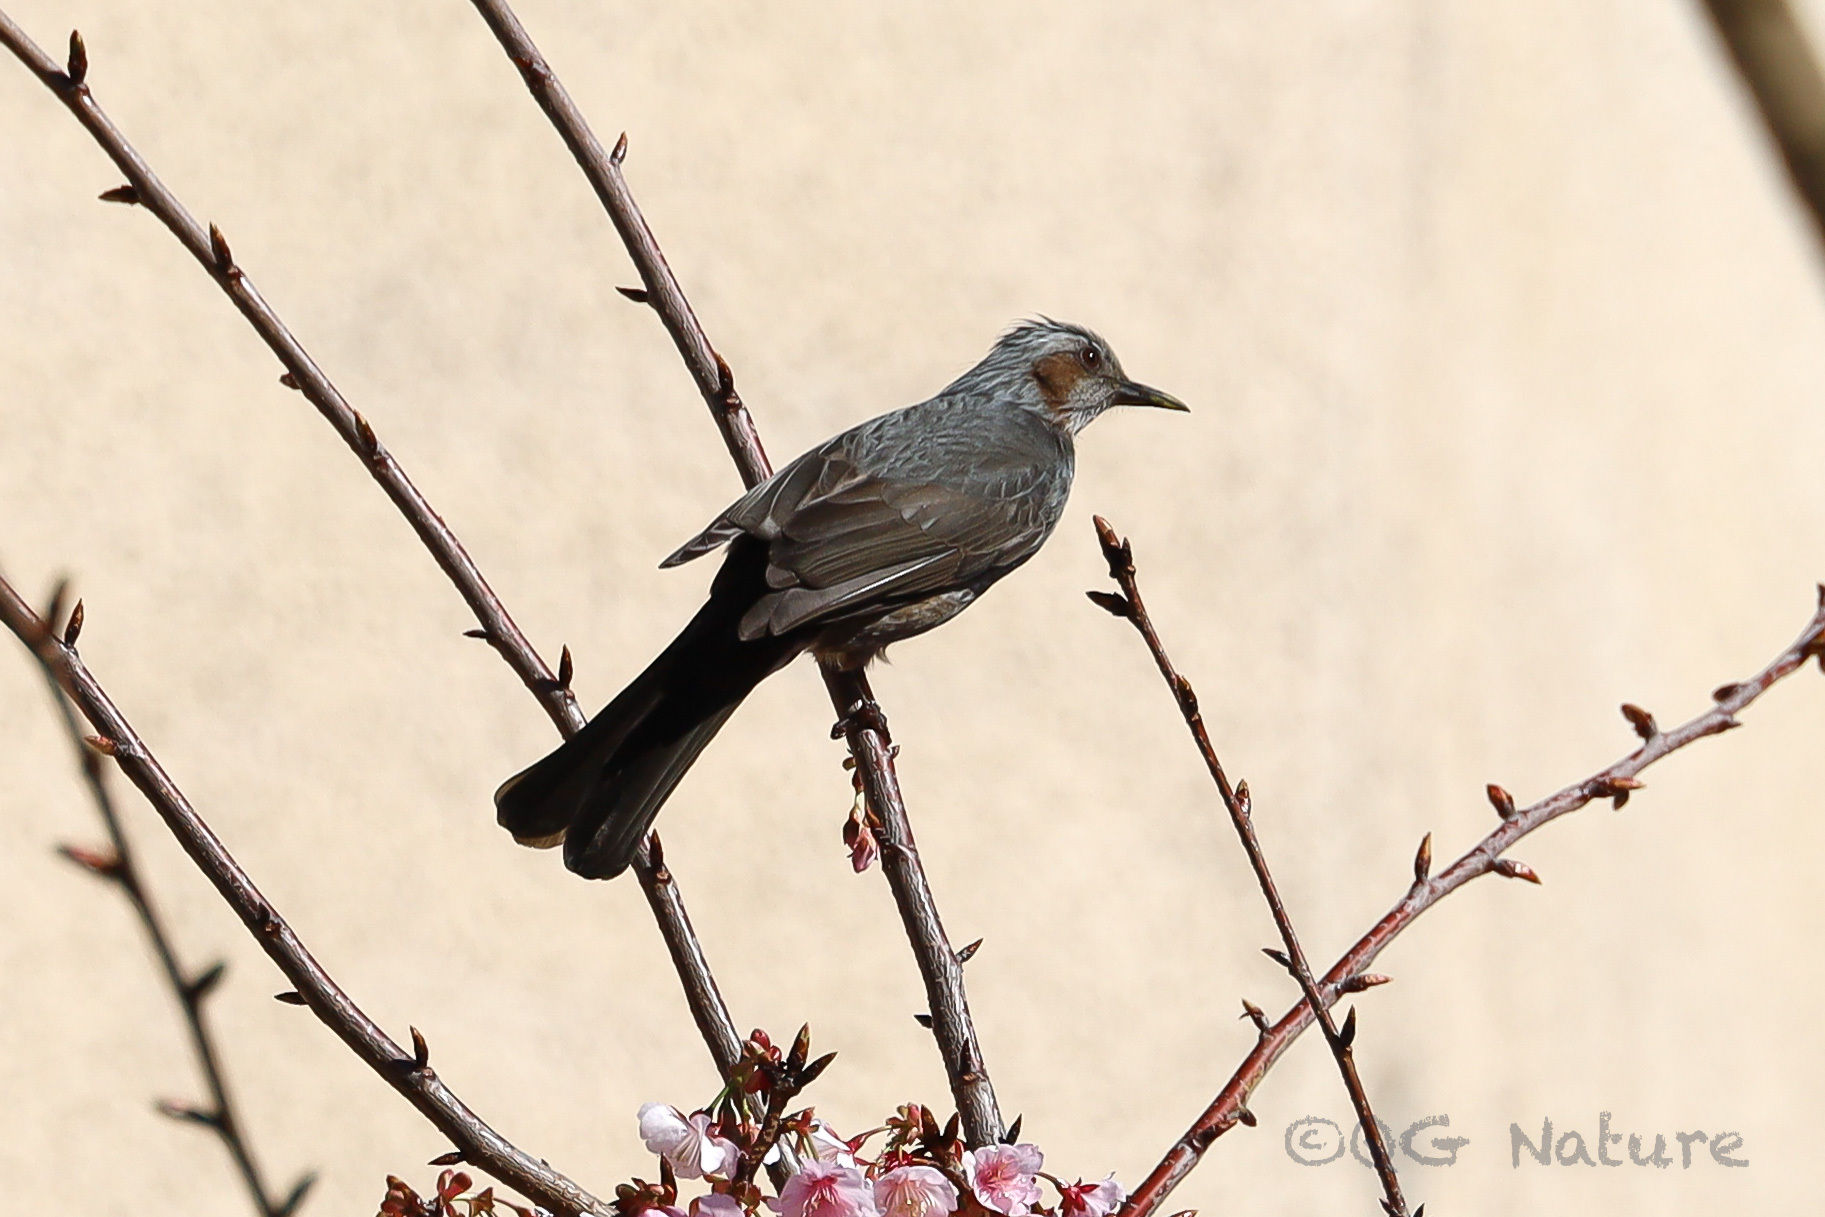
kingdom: Animalia
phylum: Chordata
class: Aves
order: Passeriformes
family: Pycnonotidae
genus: Hypsipetes
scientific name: Hypsipetes amaurotis
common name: Brown-eared bulbul
